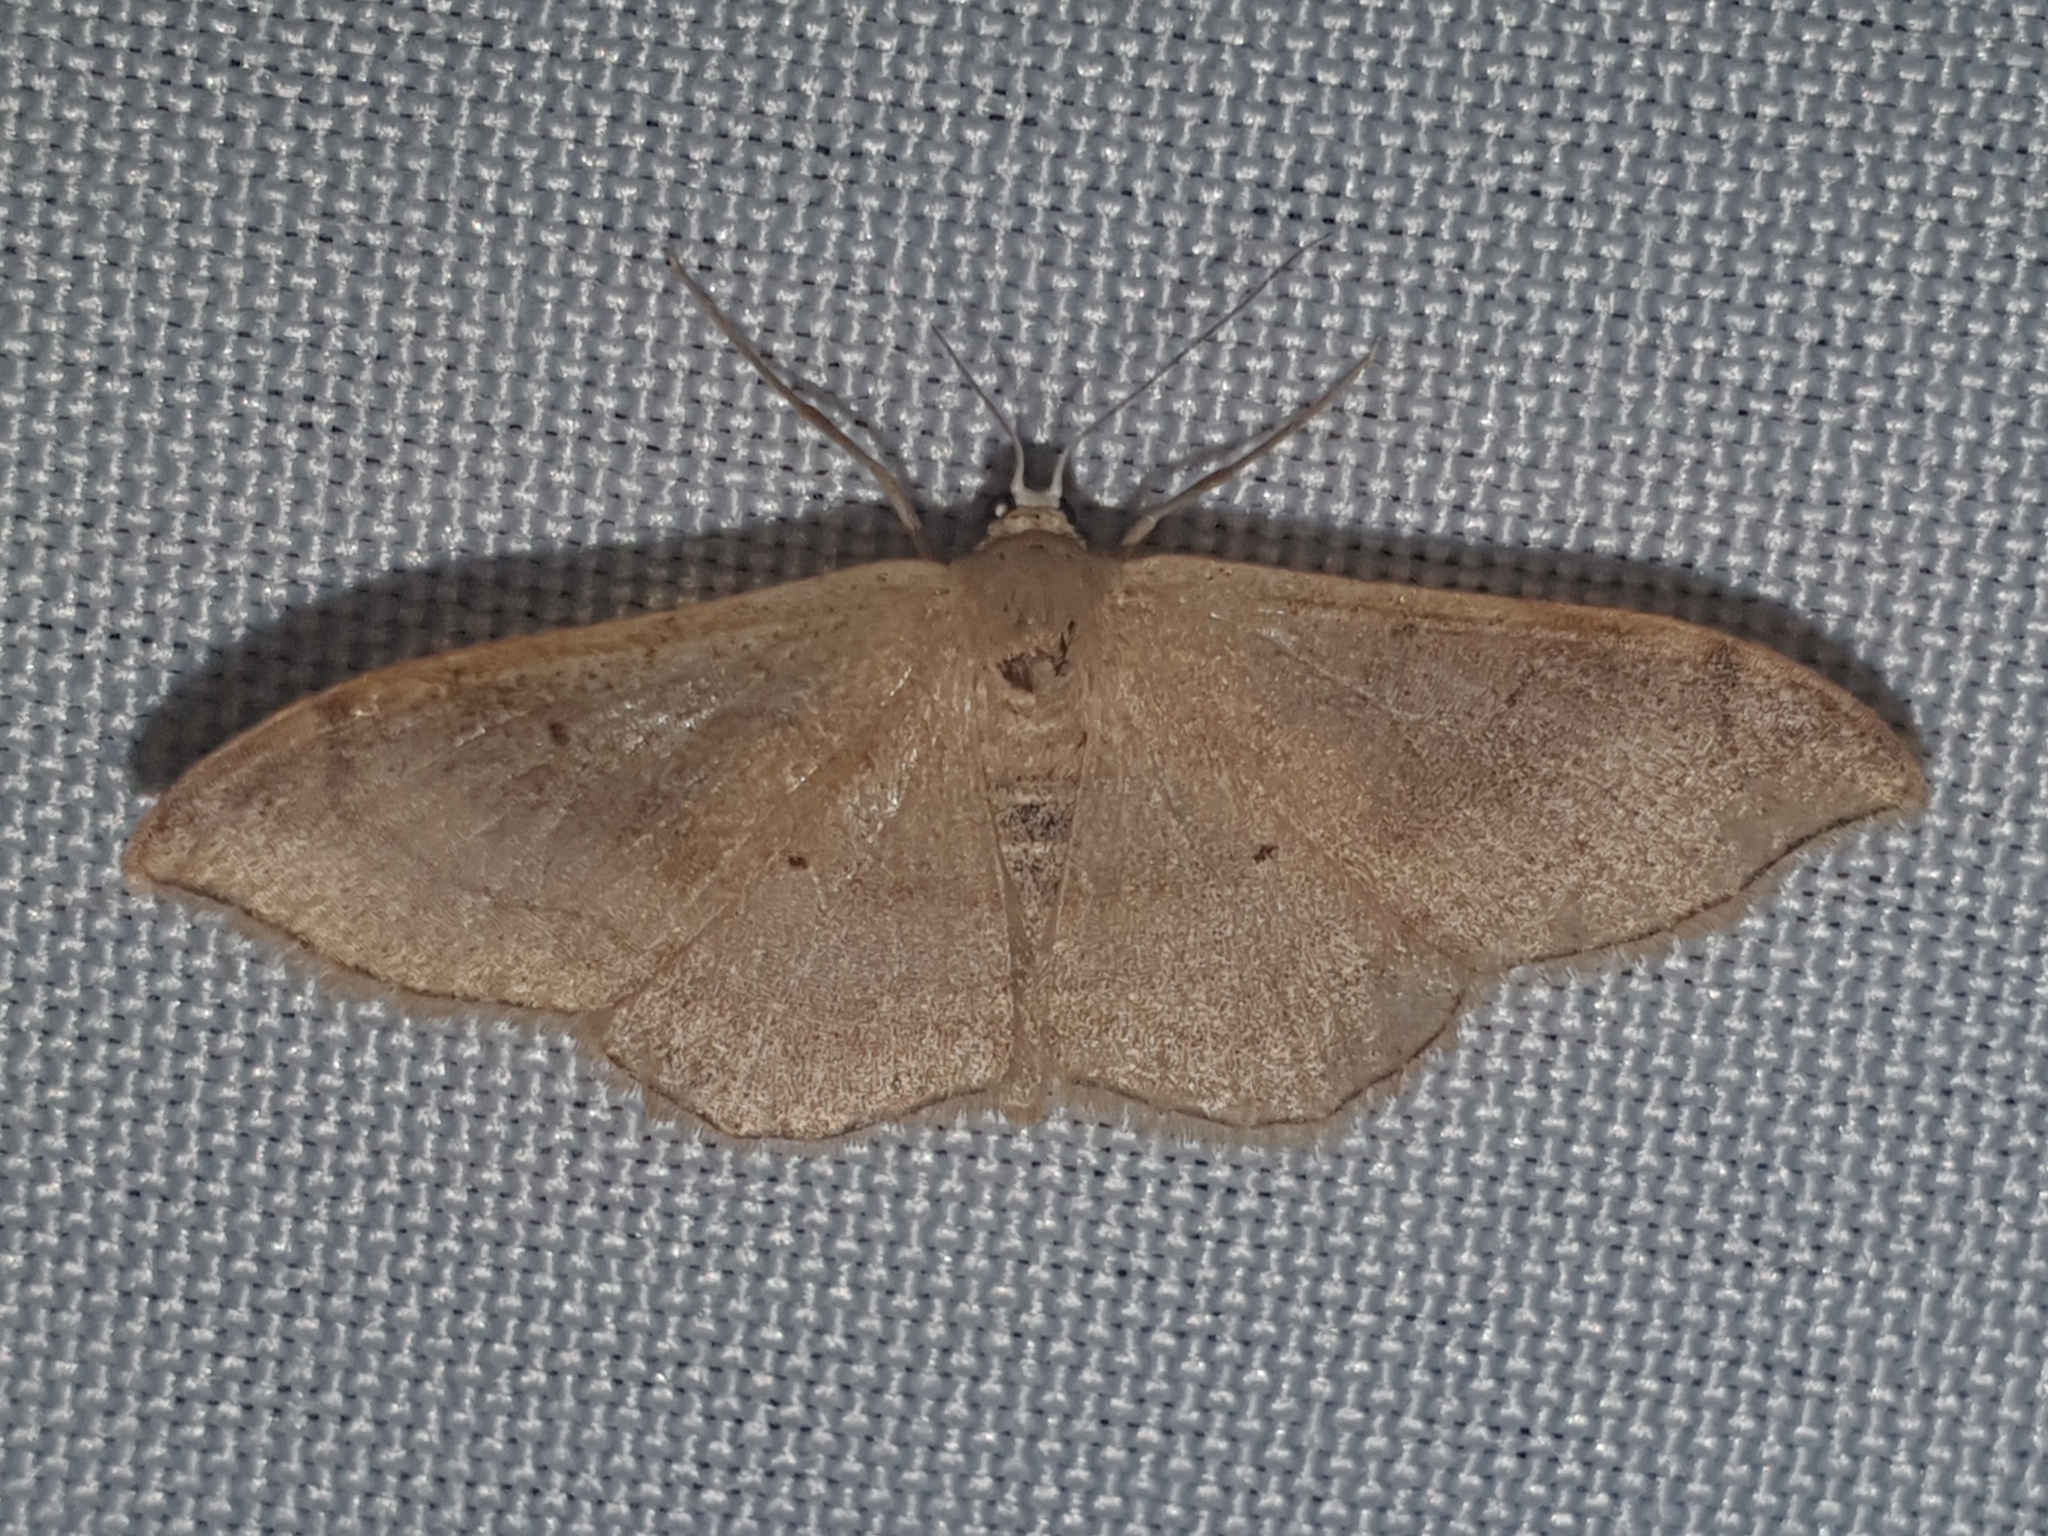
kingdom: Animalia
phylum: Arthropoda
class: Insecta
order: Lepidoptera
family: Geometridae
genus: Idaea
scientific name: Idaea degeneraria
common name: Portland ribbon wave
